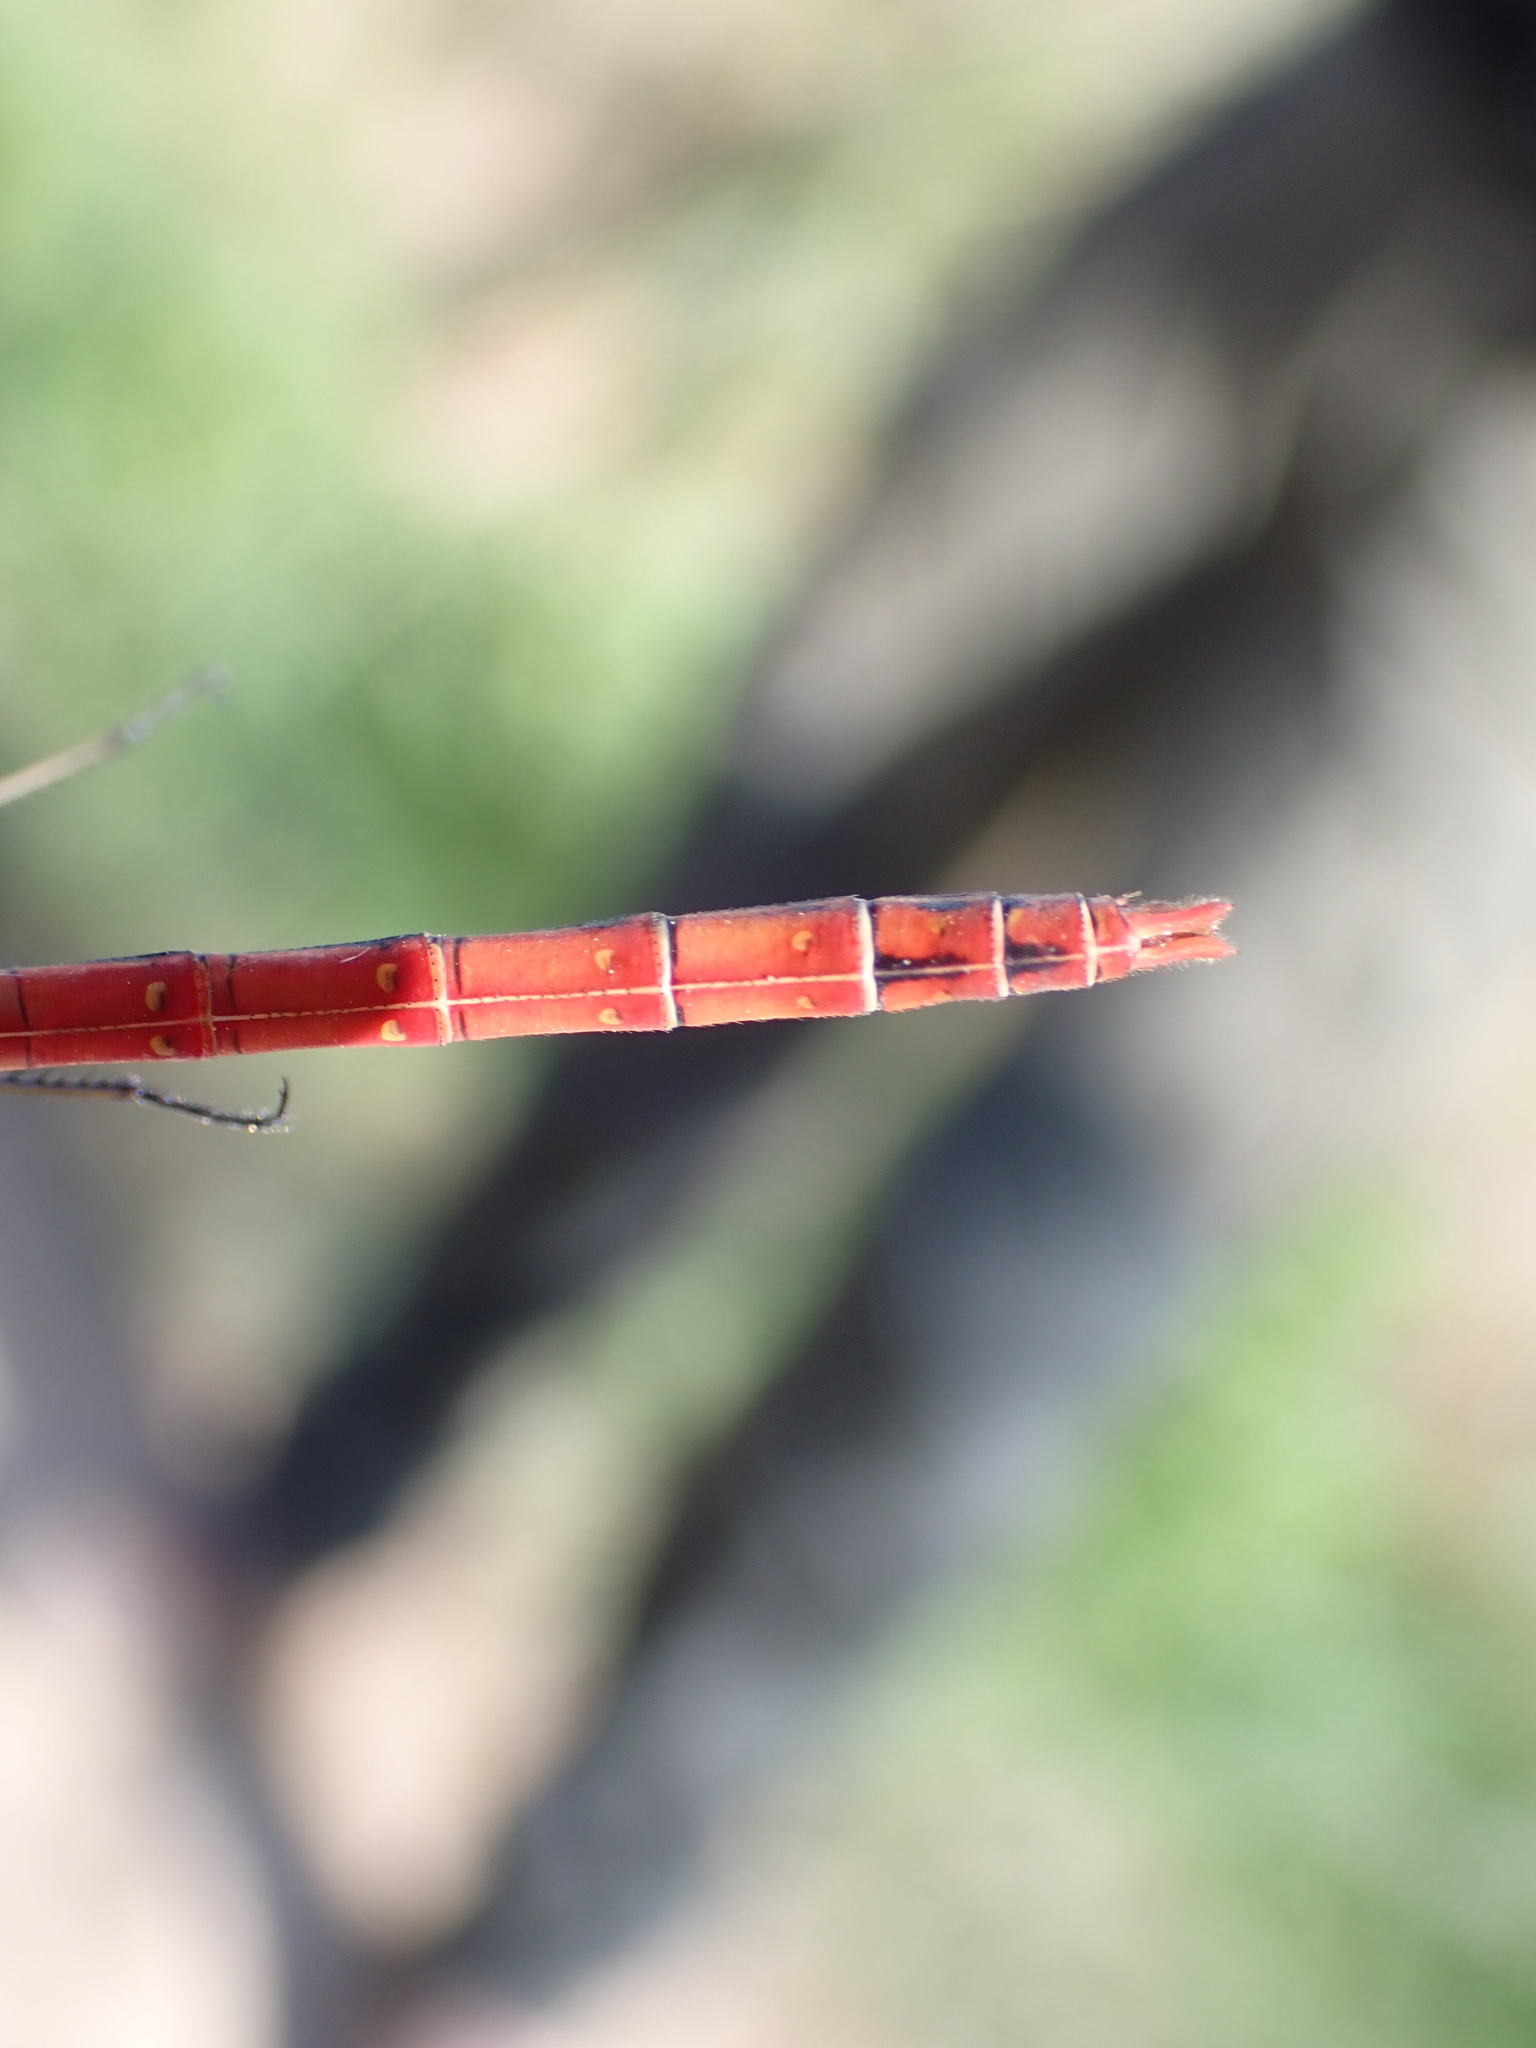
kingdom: Animalia
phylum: Arthropoda
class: Insecta
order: Odonata
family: Libellulidae
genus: Sympetrum
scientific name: Sympetrum striolatum
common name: Common darter
